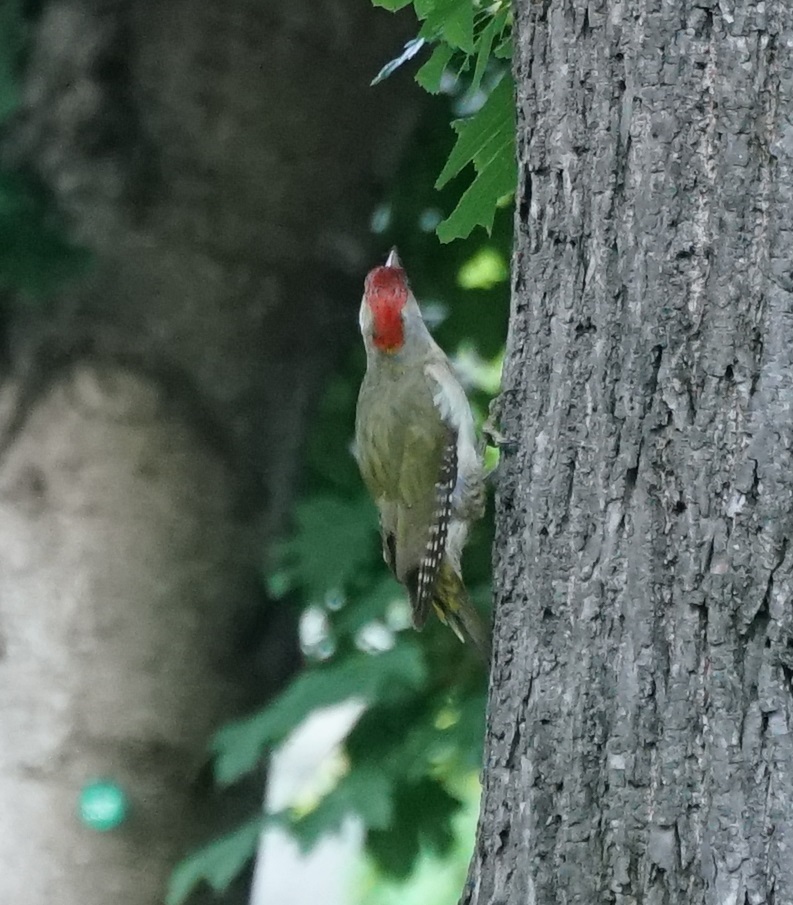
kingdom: Animalia
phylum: Chordata
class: Aves
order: Piciformes
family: Picidae
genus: Picus
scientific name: Picus viridis
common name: European green woodpecker
